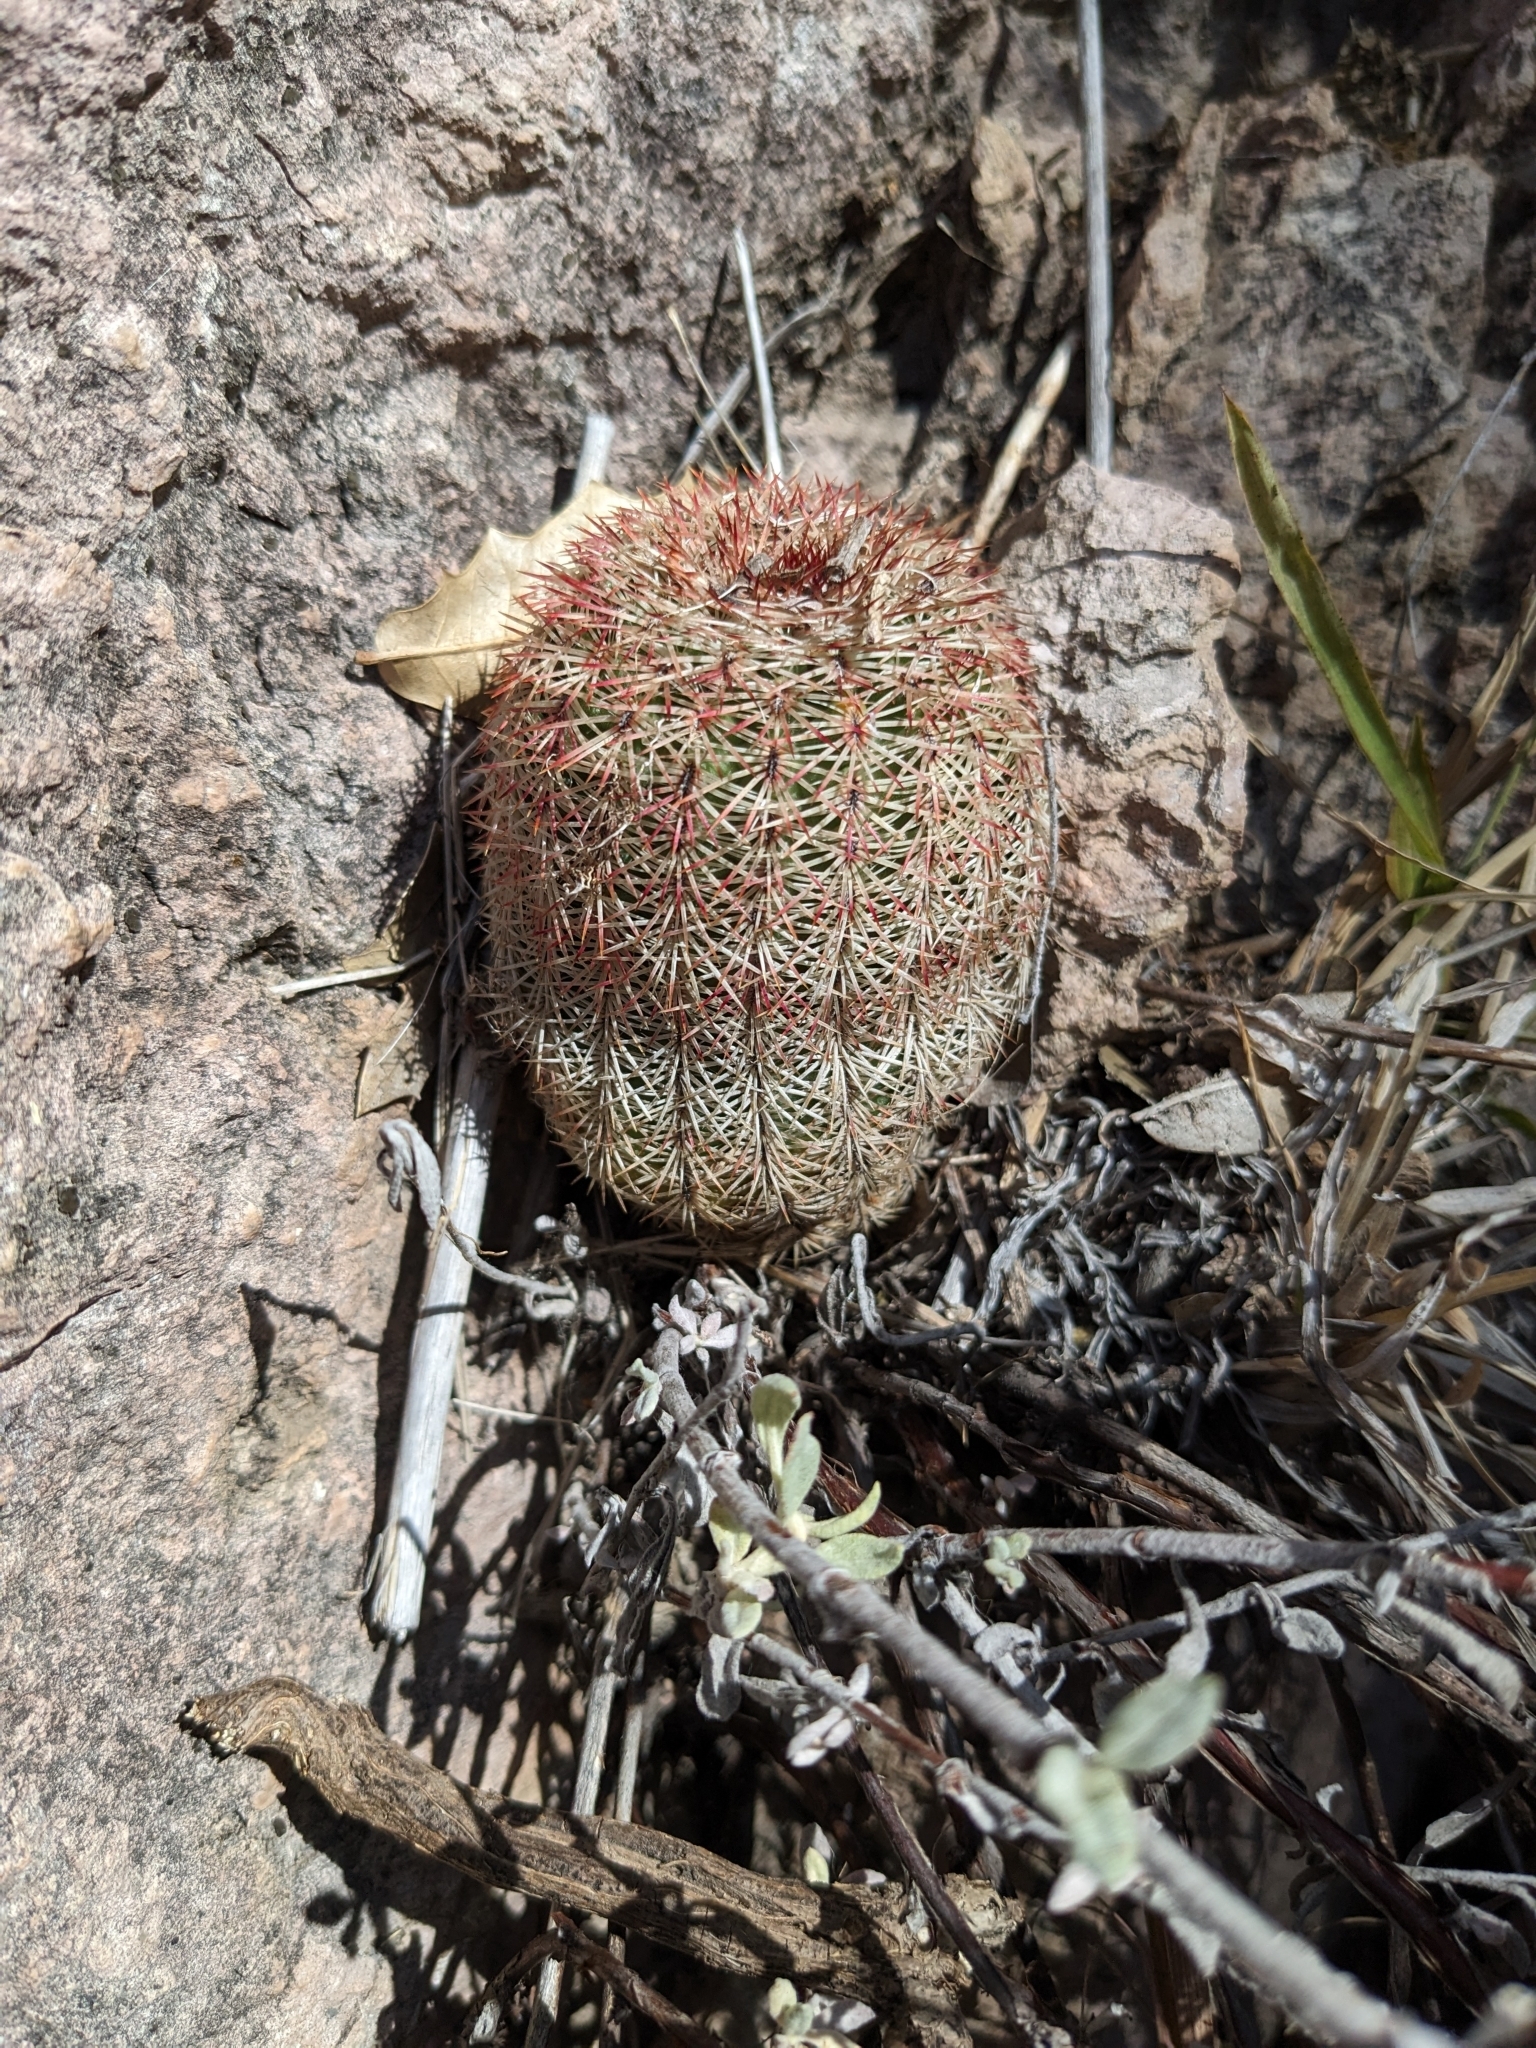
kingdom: Plantae
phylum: Tracheophyta
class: Magnoliopsida
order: Caryophyllales
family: Cactaceae
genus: Echinocereus
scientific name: Echinocereus rigidissimus
